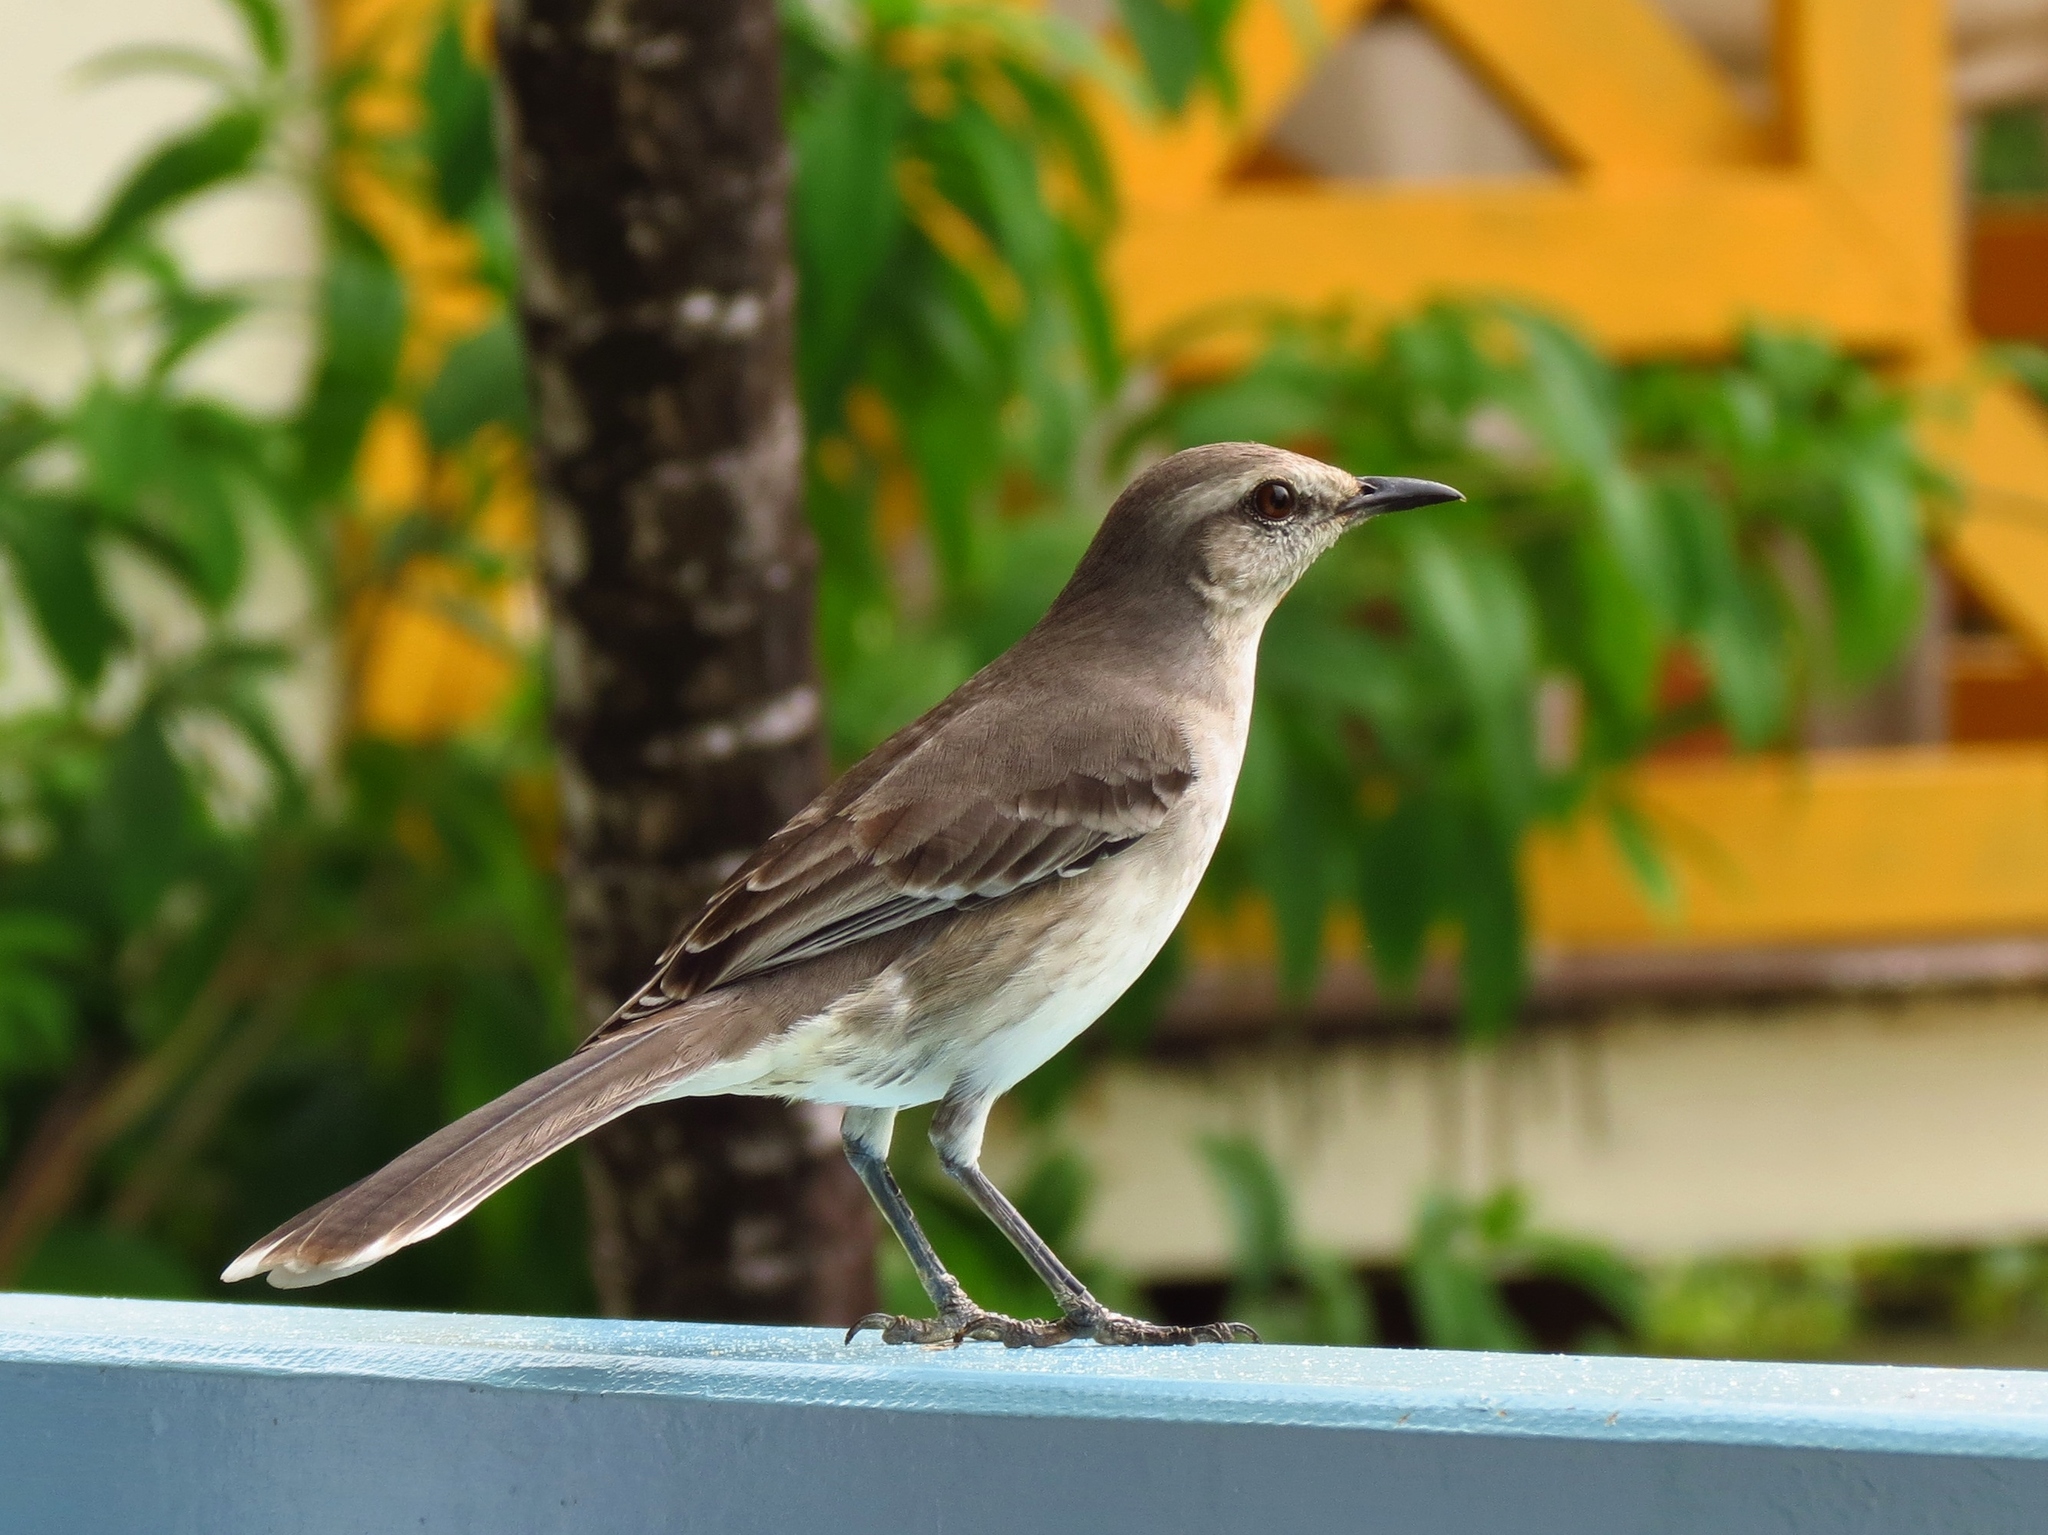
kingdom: Animalia
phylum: Chordata
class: Aves
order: Passeriformes
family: Mimidae
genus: Mimus
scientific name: Mimus gilvus
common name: Tropical mockingbird
